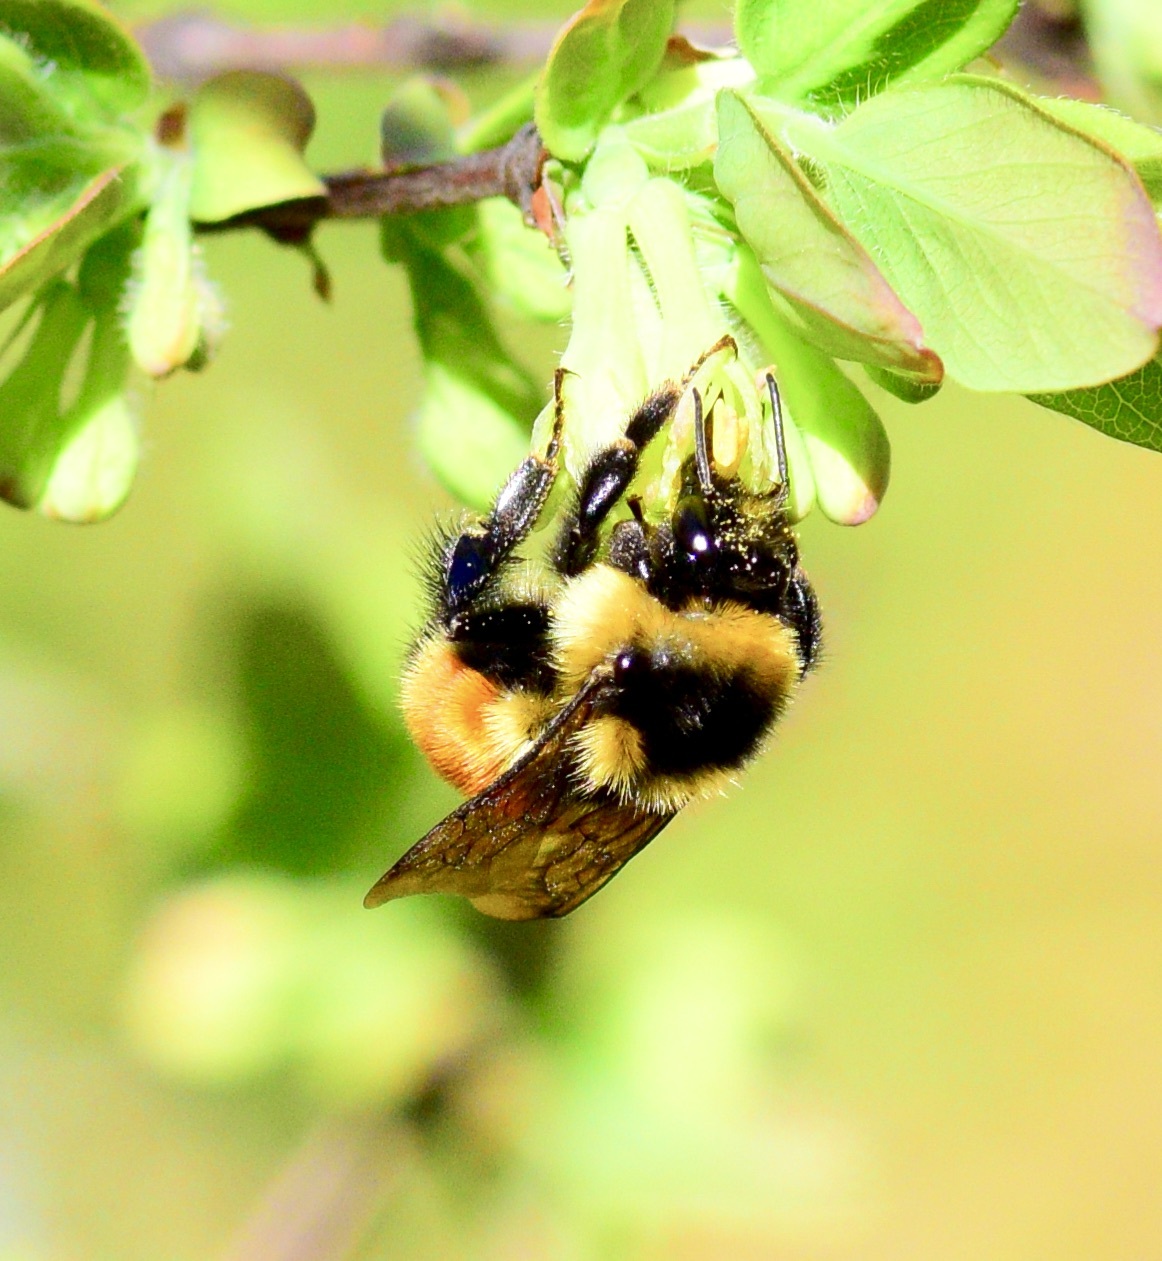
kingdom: Animalia
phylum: Arthropoda
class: Insecta
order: Hymenoptera
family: Apidae
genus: Bombus
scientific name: Bombus ternarius
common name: Tri-colored bumble bee
